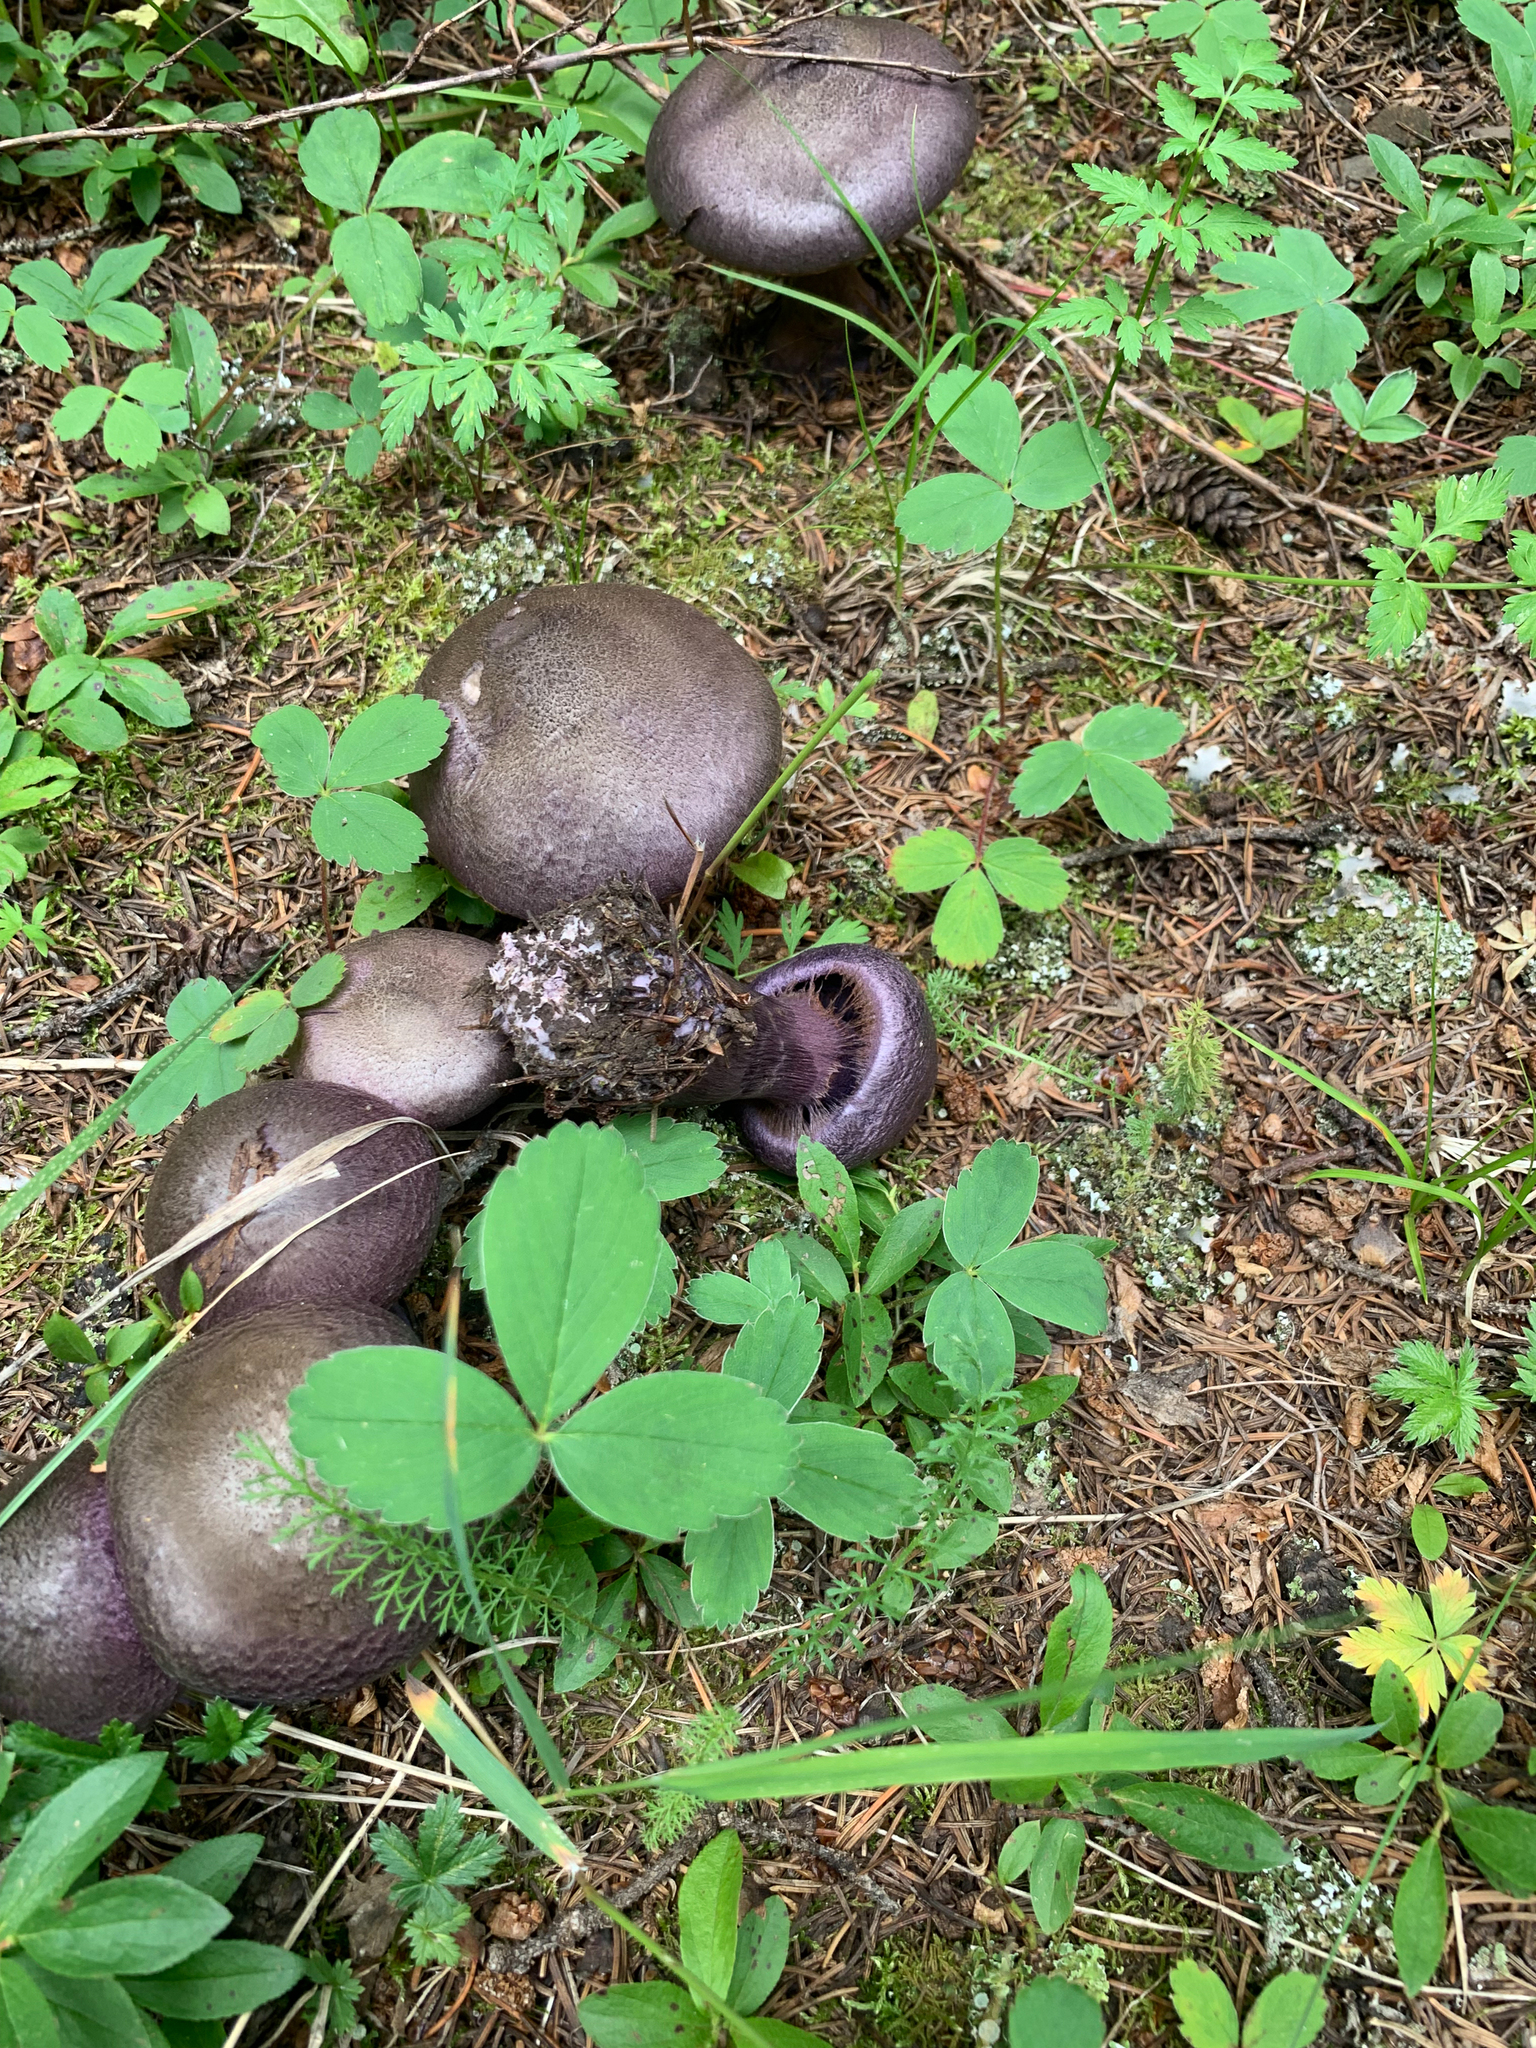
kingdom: Fungi
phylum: Basidiomycota
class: Agaricomycetes
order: Agaricales
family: Cortinariaceae
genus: Cortinarius
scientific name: Cortinarius violaceus
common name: Violet webcap
